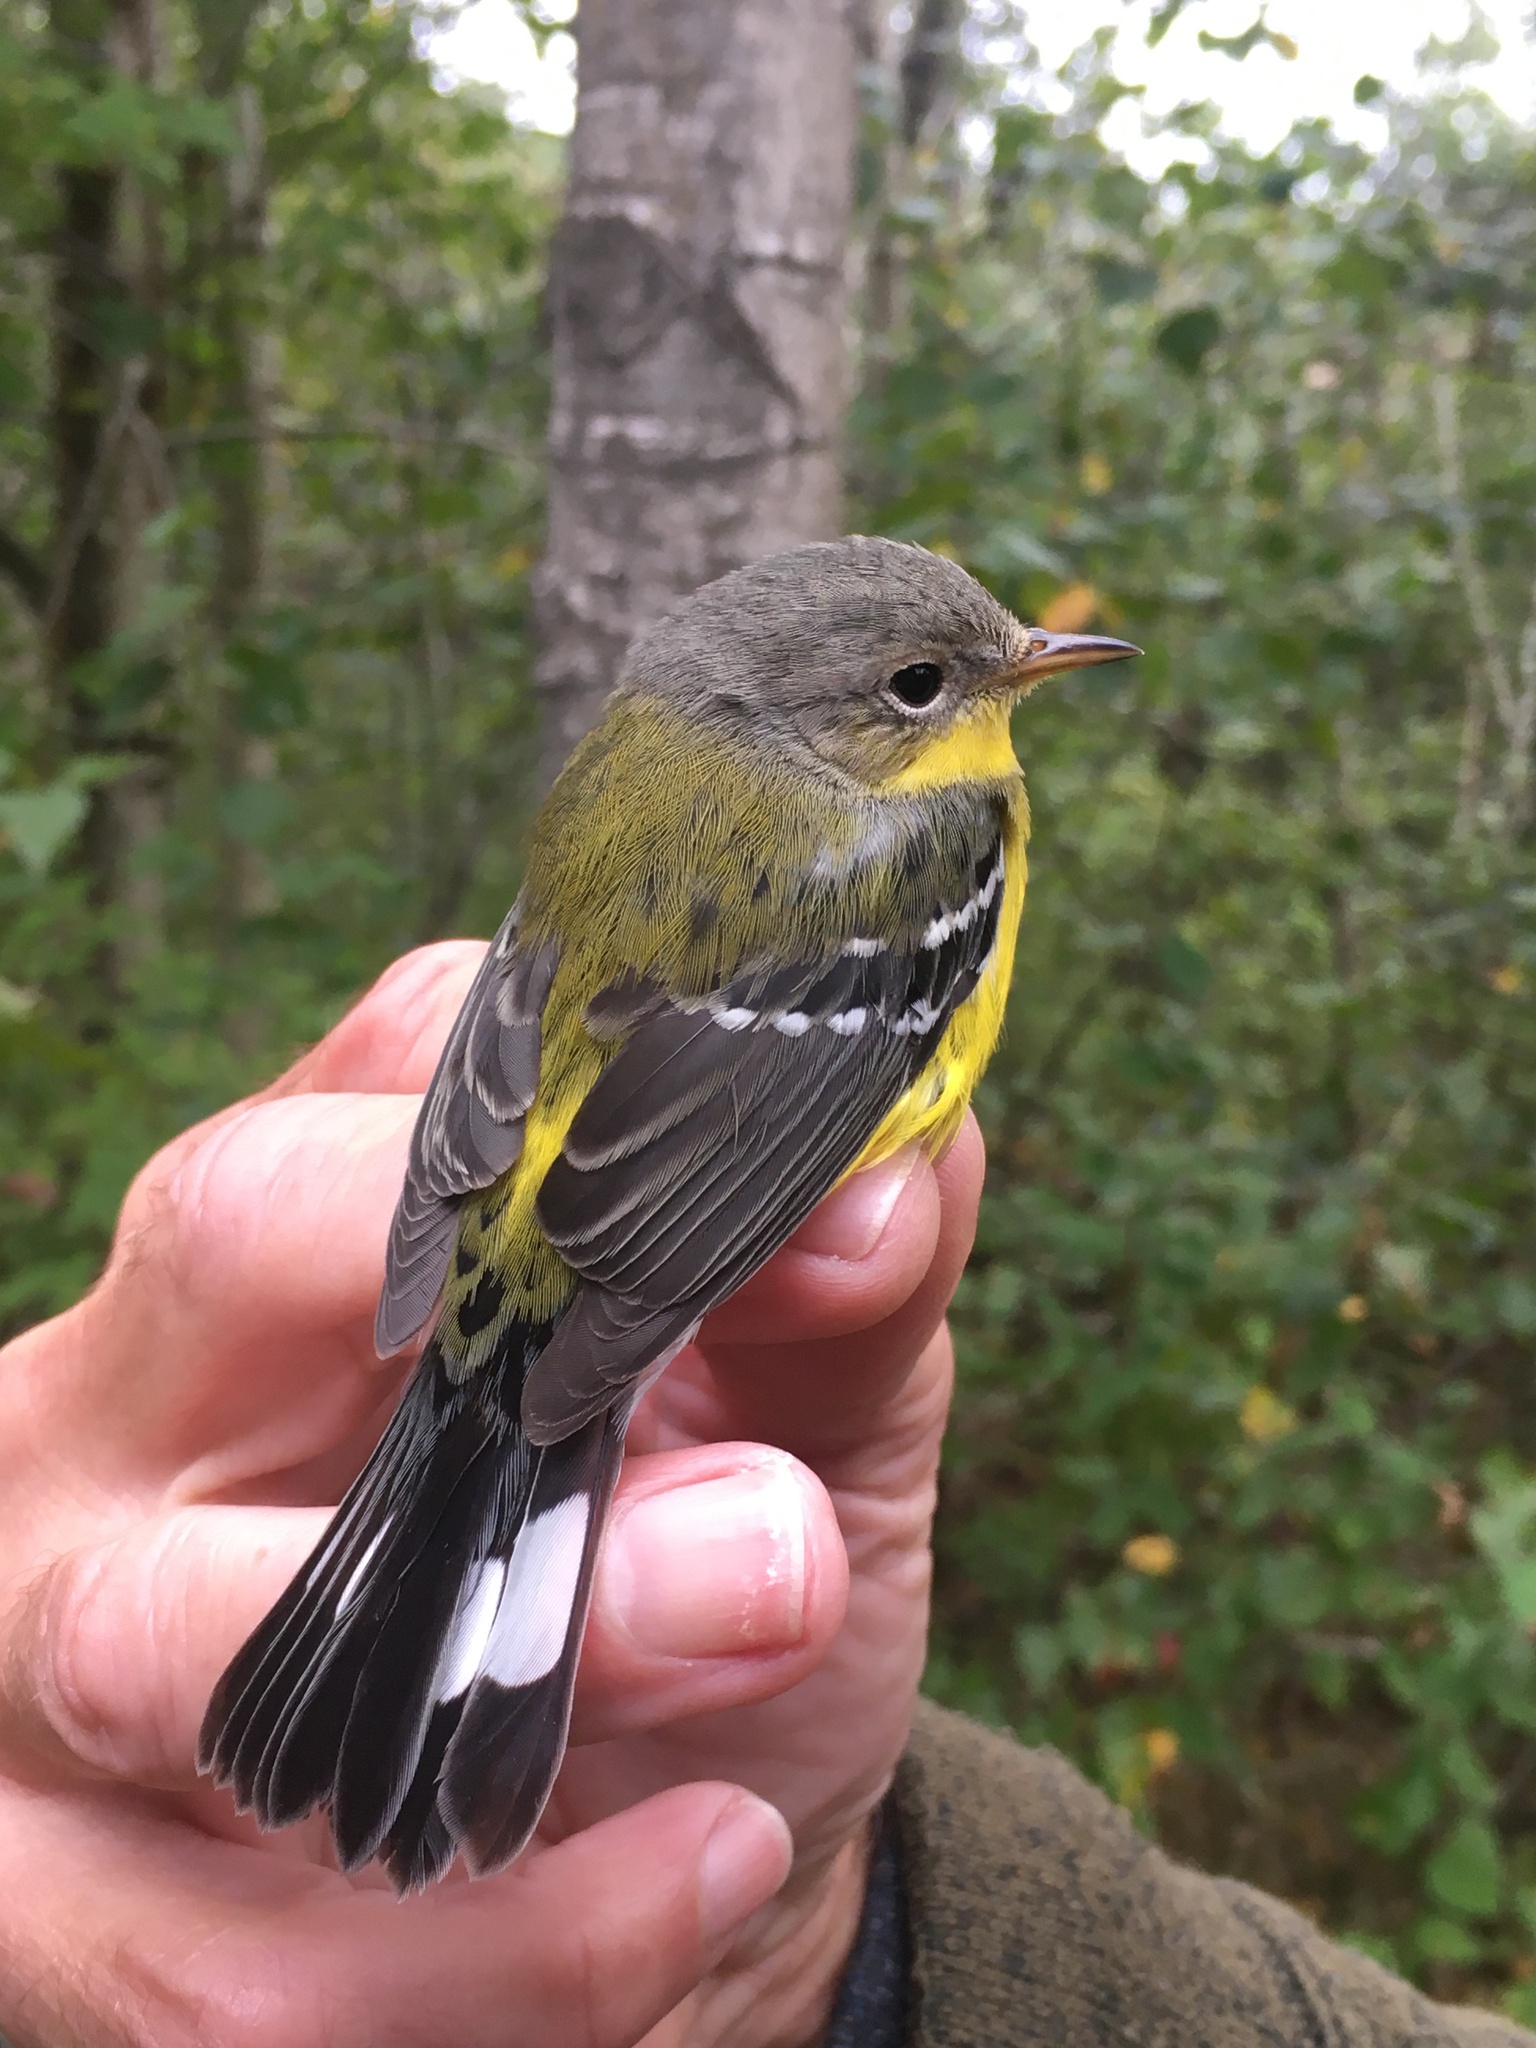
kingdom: Animalia
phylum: Chordata
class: Aves
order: Passeriformes
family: Parulidae
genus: Setophaga
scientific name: Setophaga magnolia
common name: Magnolia warbler
